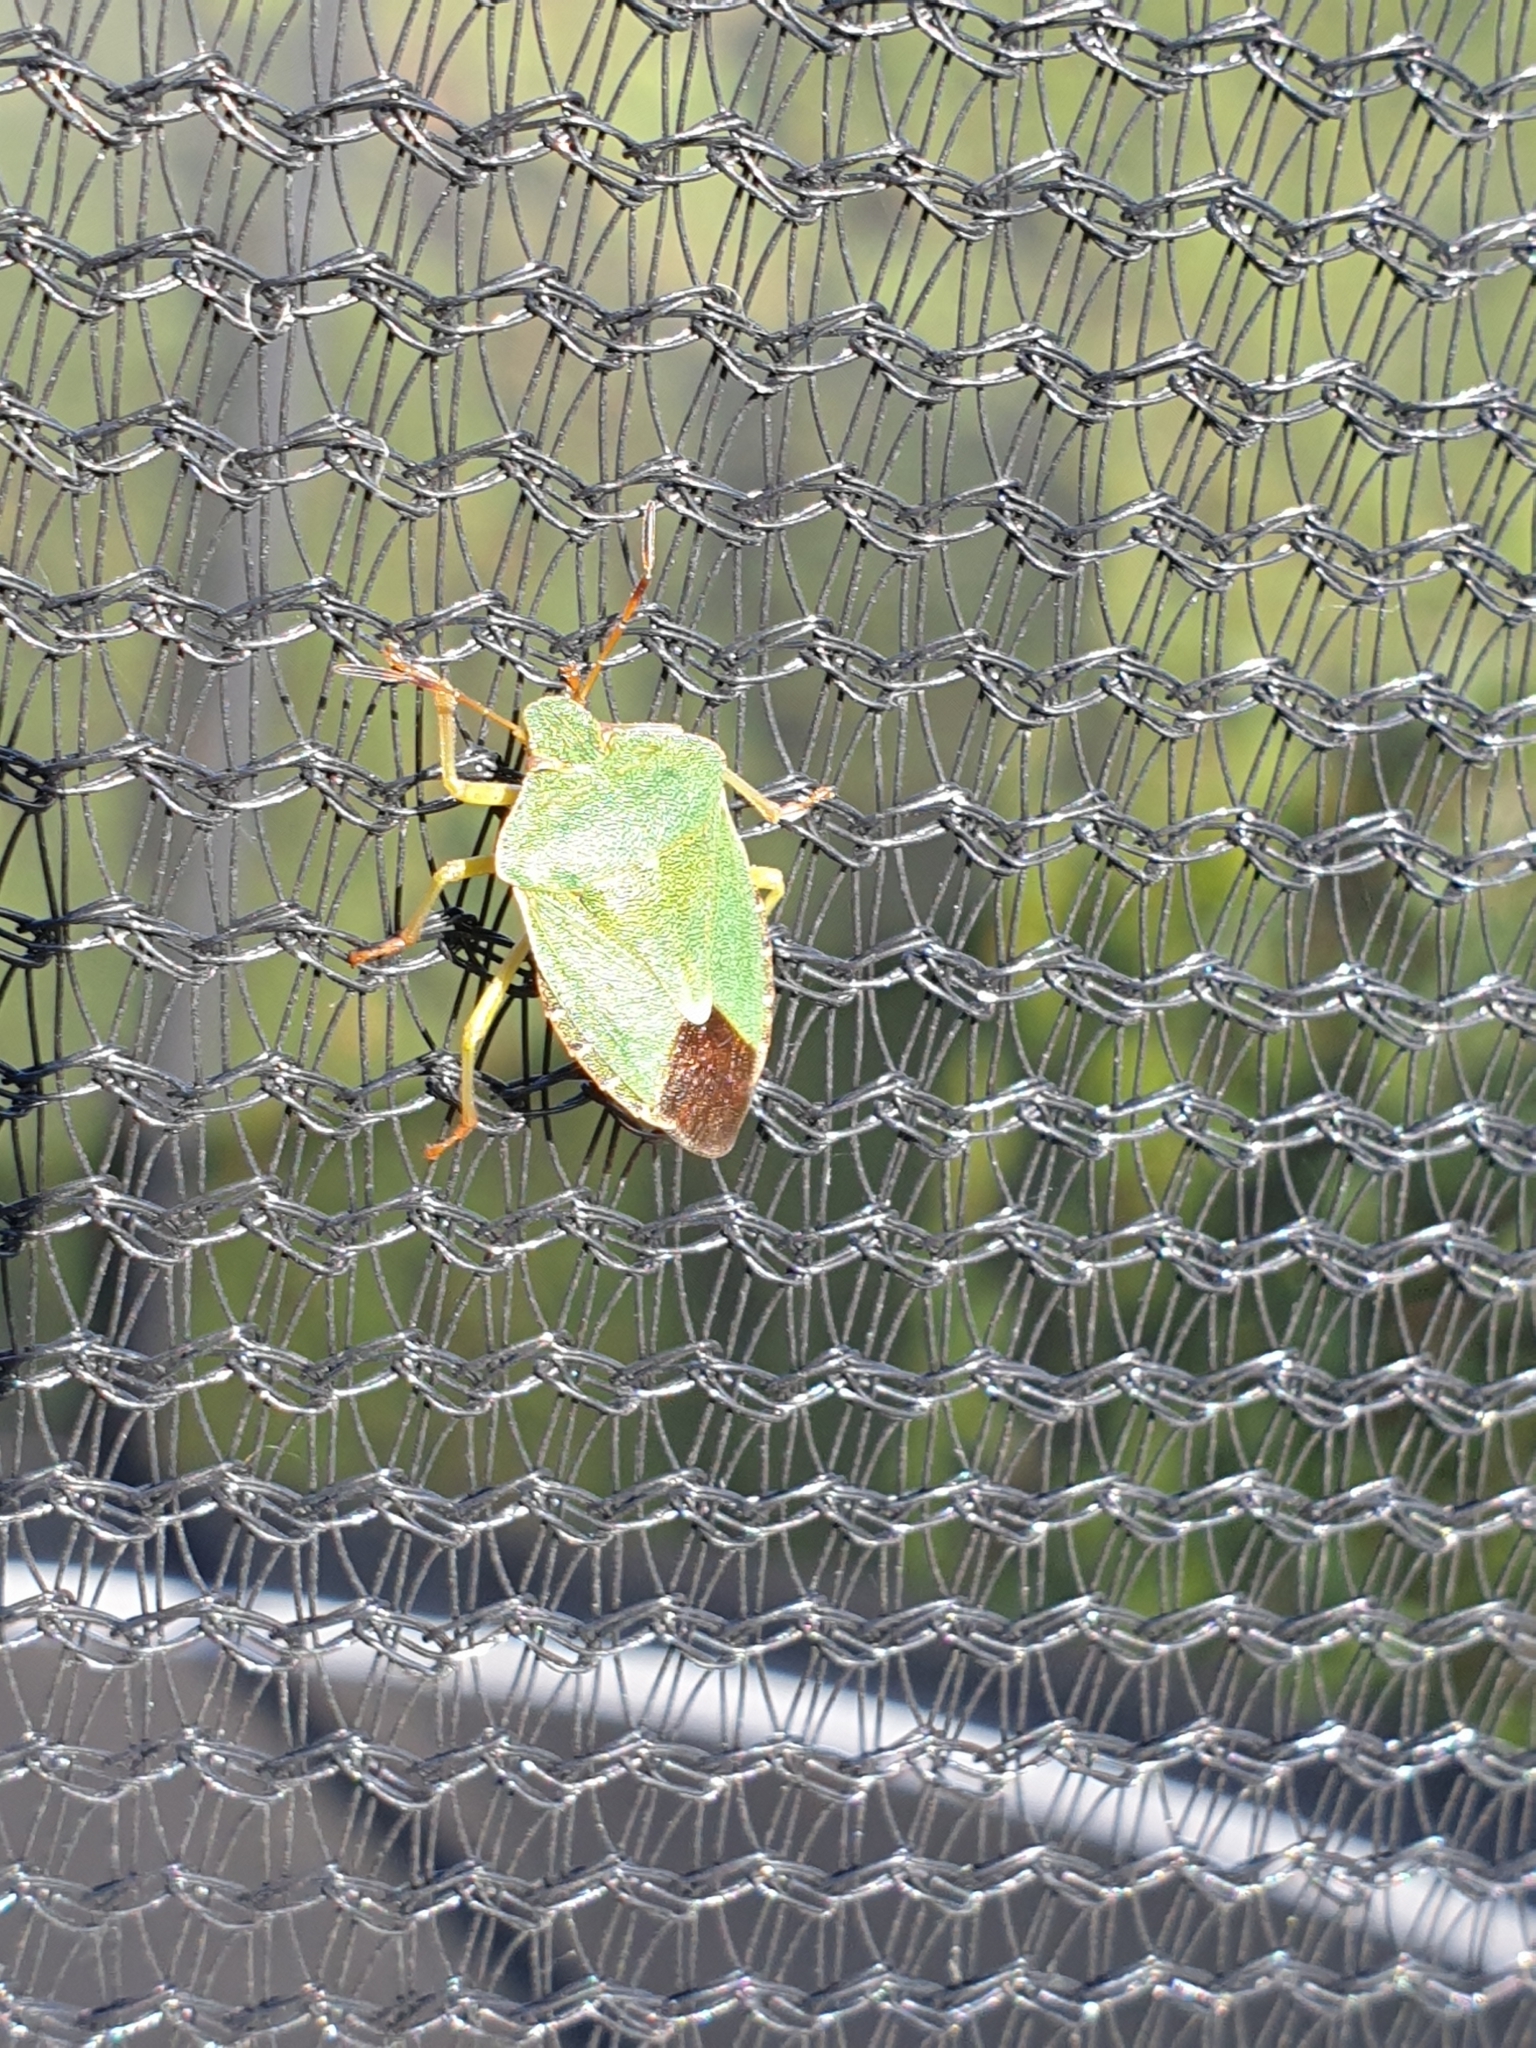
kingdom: Animalia
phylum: Arthropoda
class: Insecta
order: Hemiptera
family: Pentatomidae
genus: Palomena
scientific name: Palomena prasina
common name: Green shieldbug
